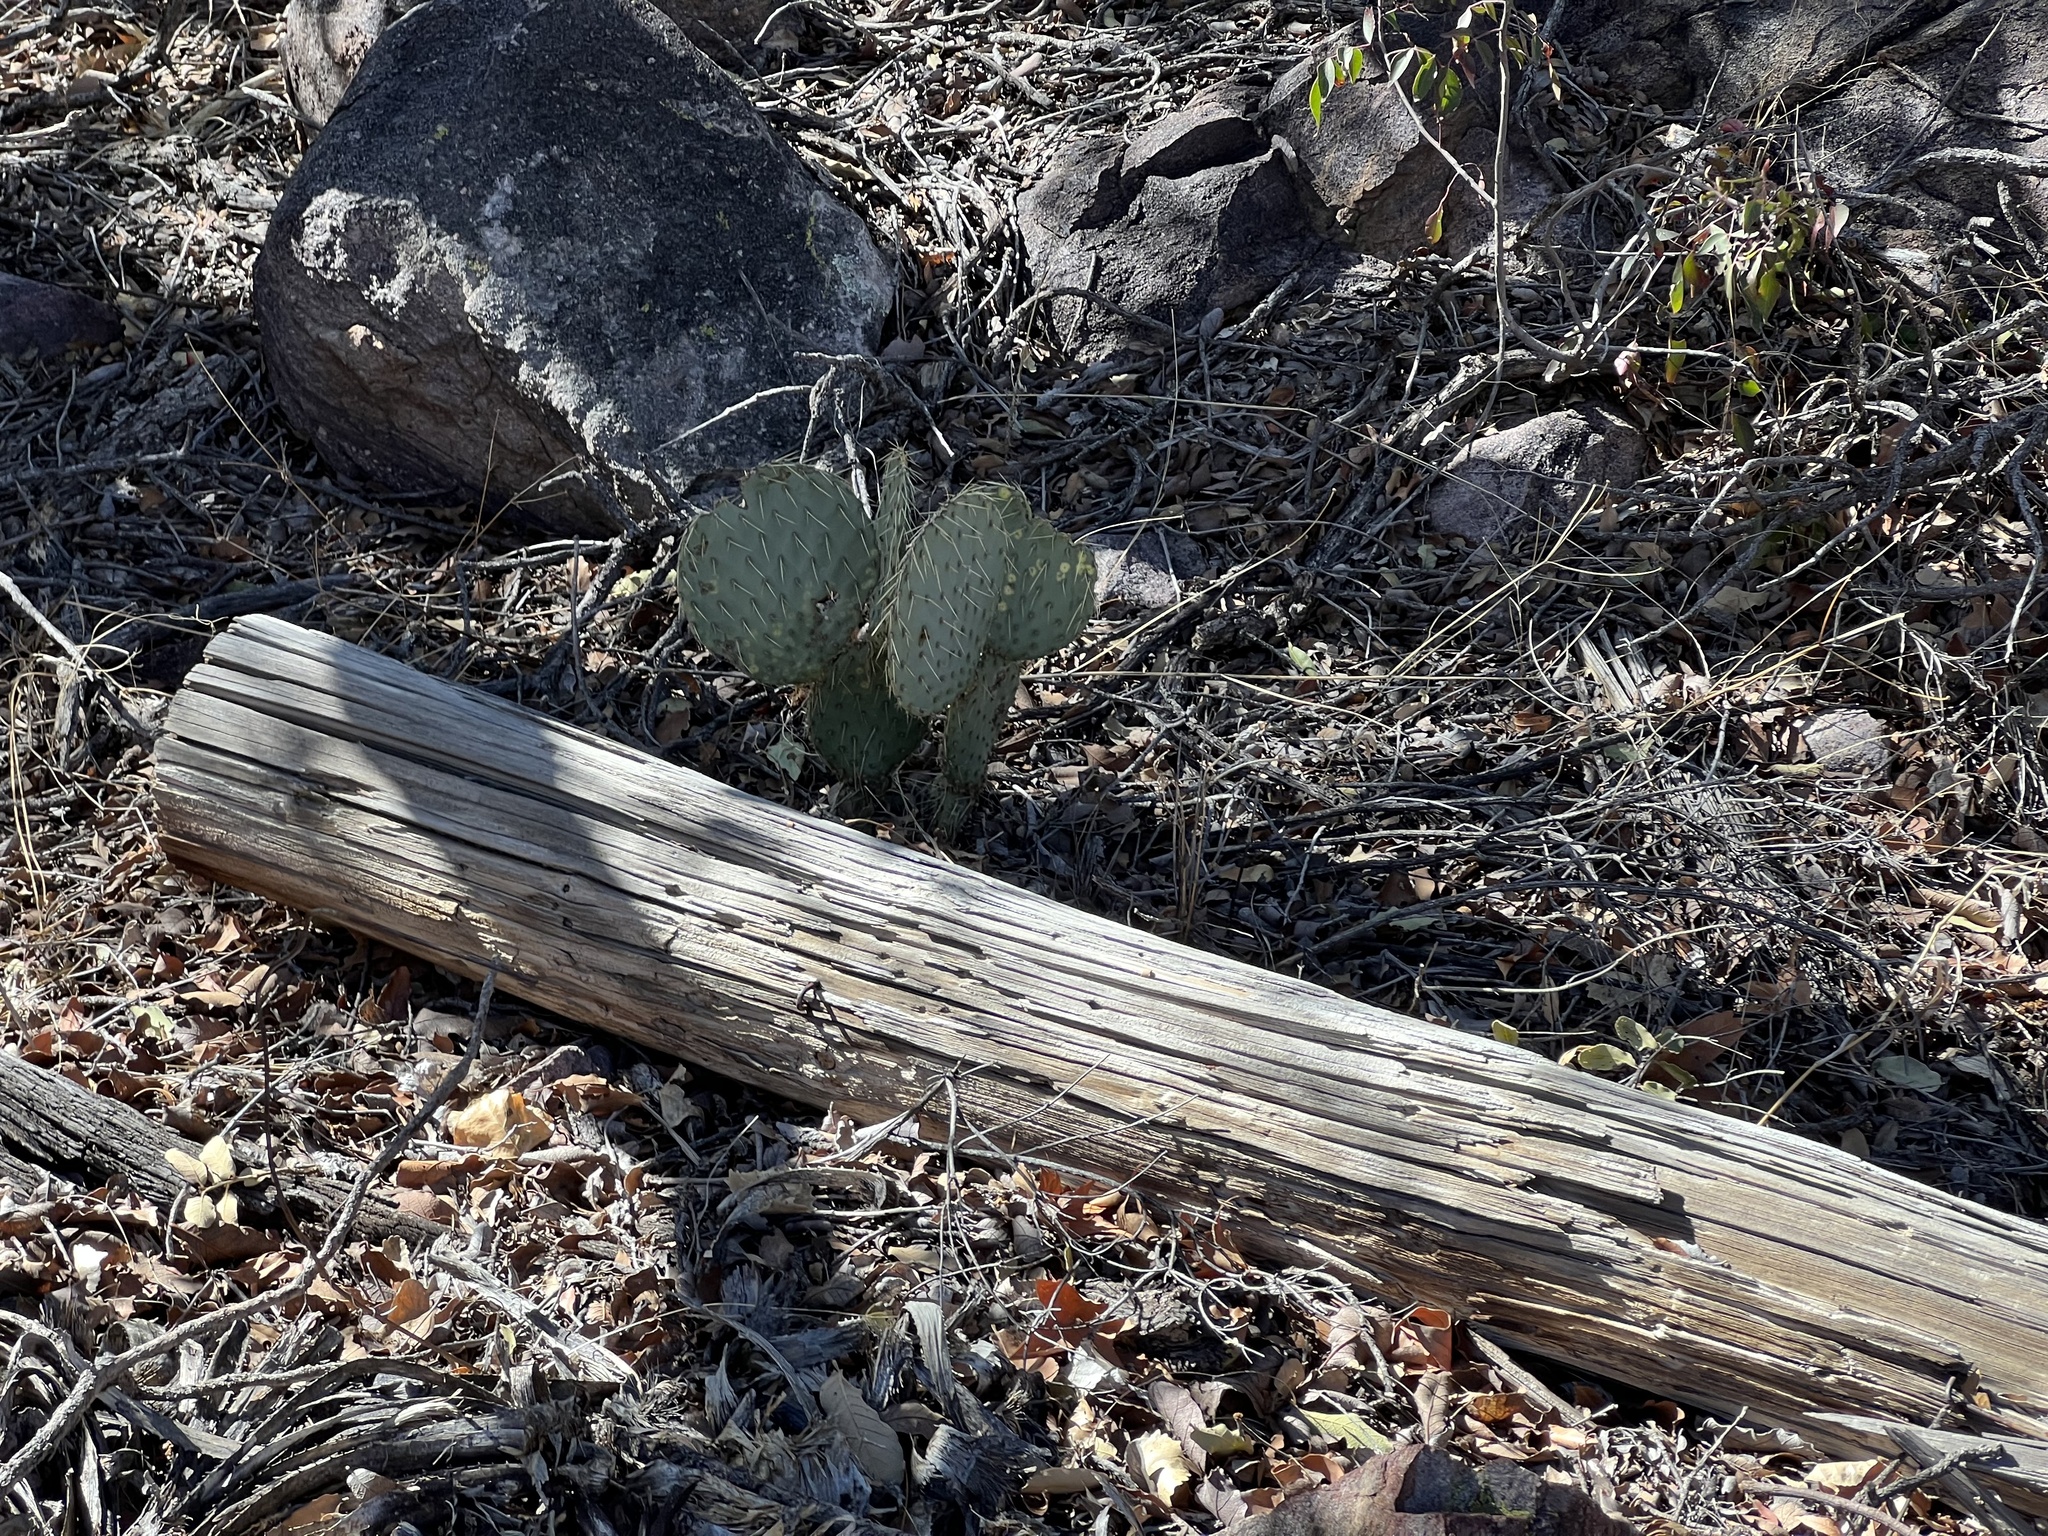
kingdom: Plantae
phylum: Tracheophyta
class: Magnoliopsida
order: Caryophyllales
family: Cactaceae
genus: Opuntia
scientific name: Opuntia chlorotica
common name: Dollar-joint prickly-pear
